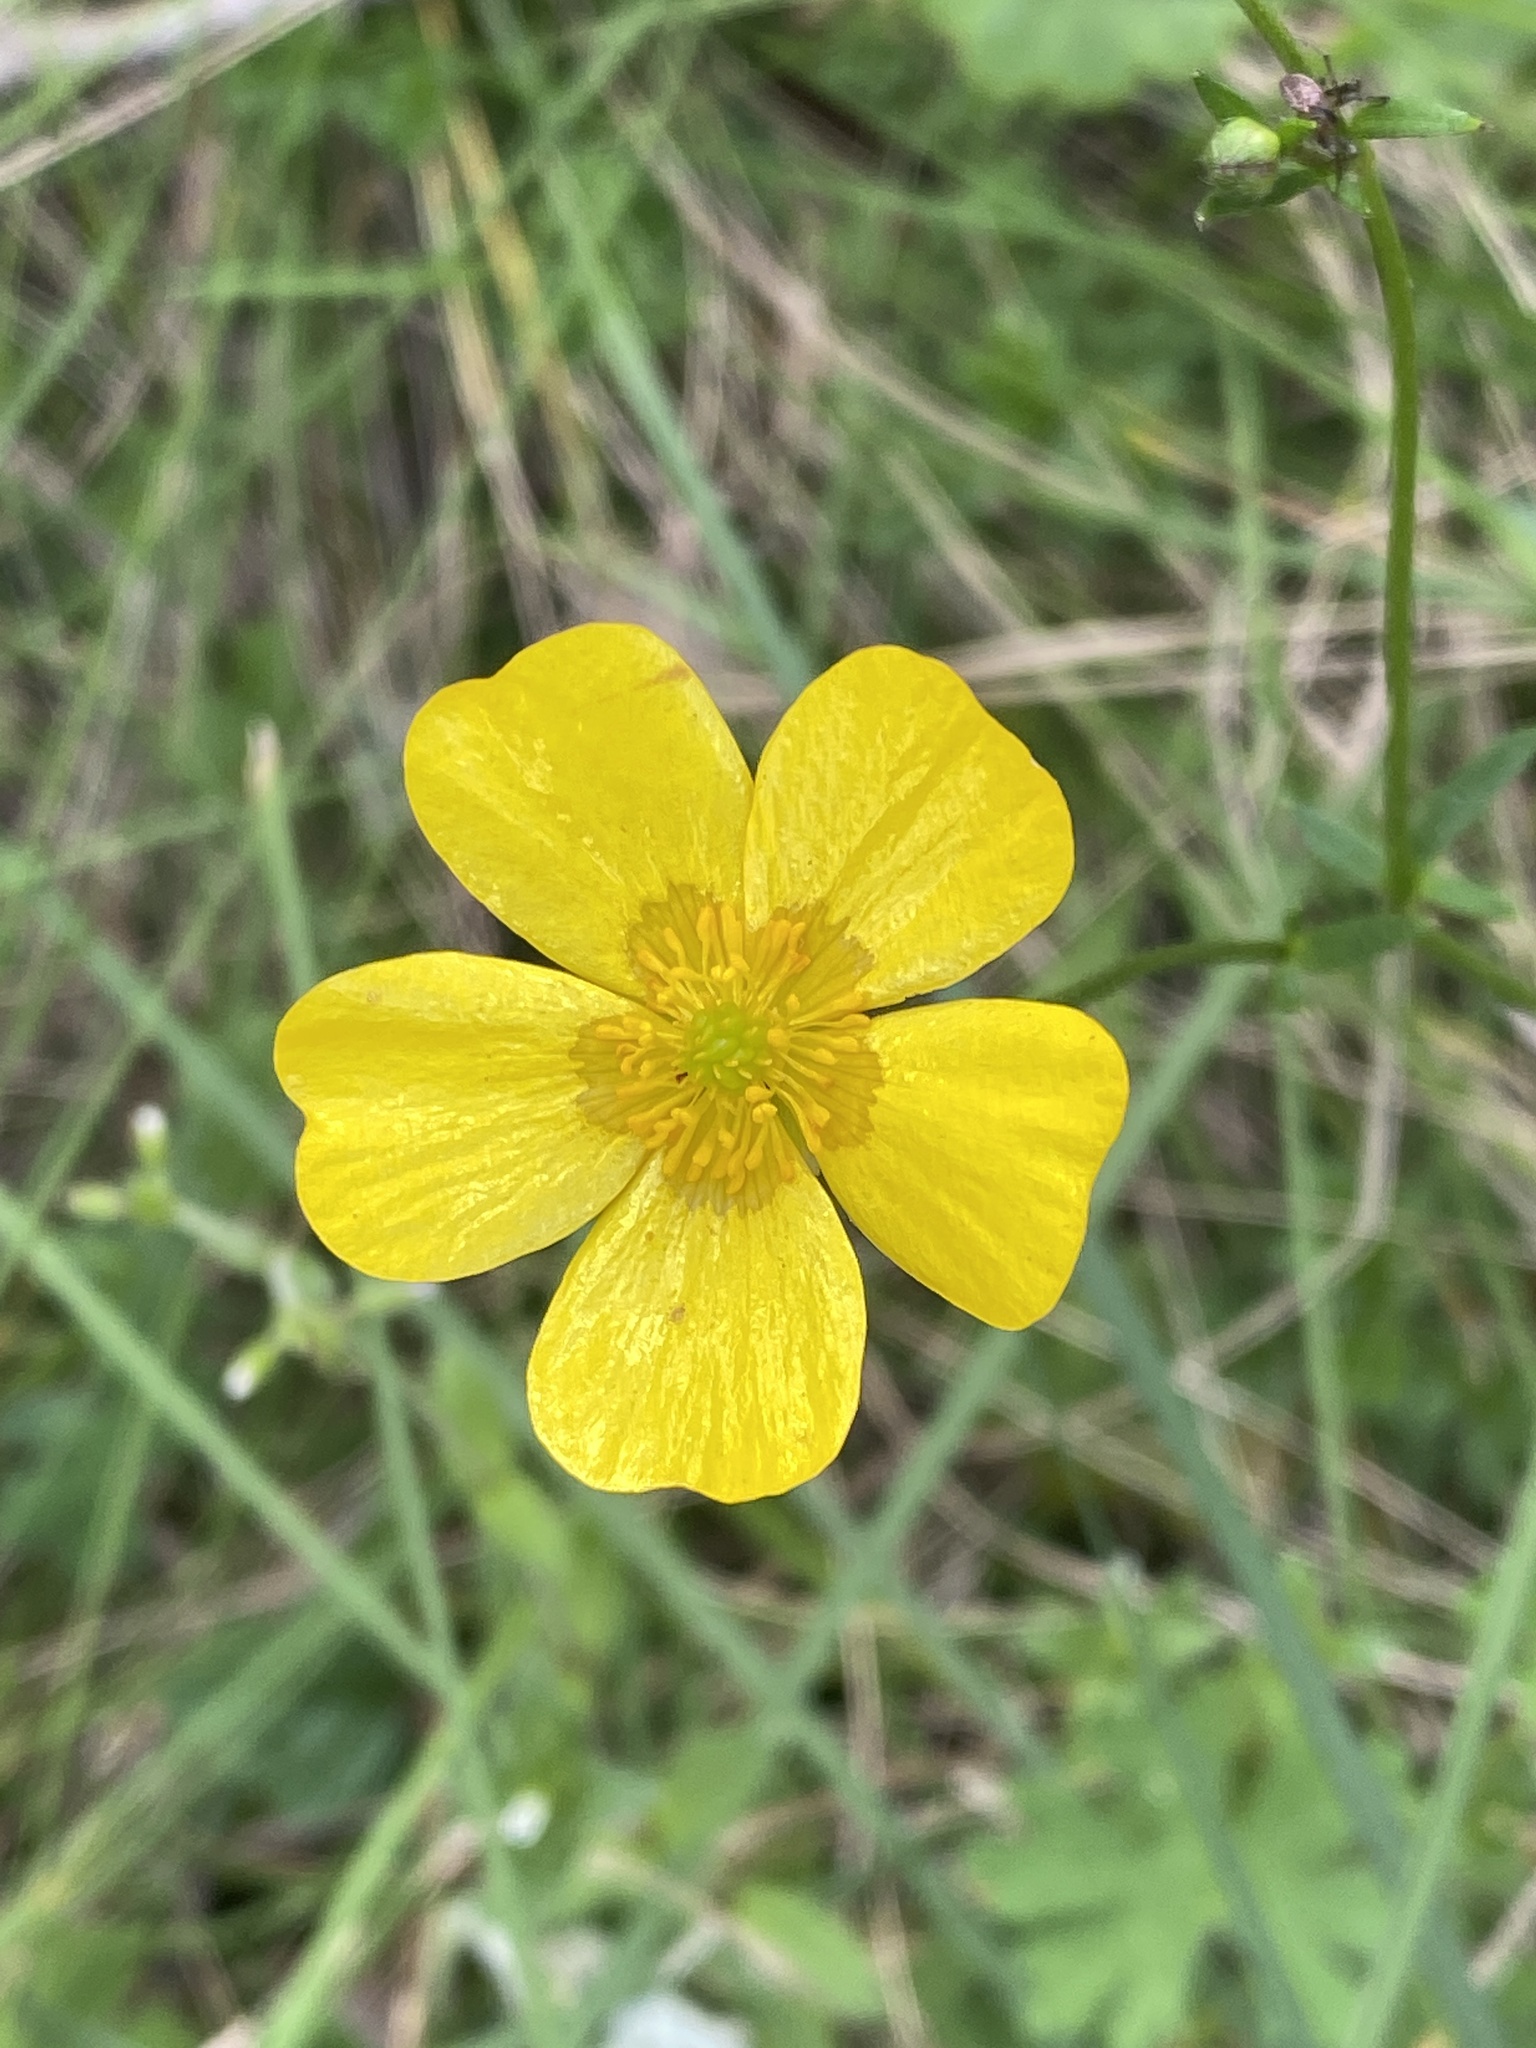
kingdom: Plantae
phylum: Tracheophyta
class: Magnoliopsida
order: Ranunculales
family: Ranunculaceae
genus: Ranunculus
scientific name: Ranunculus lappaceus
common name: Australian buttercup
